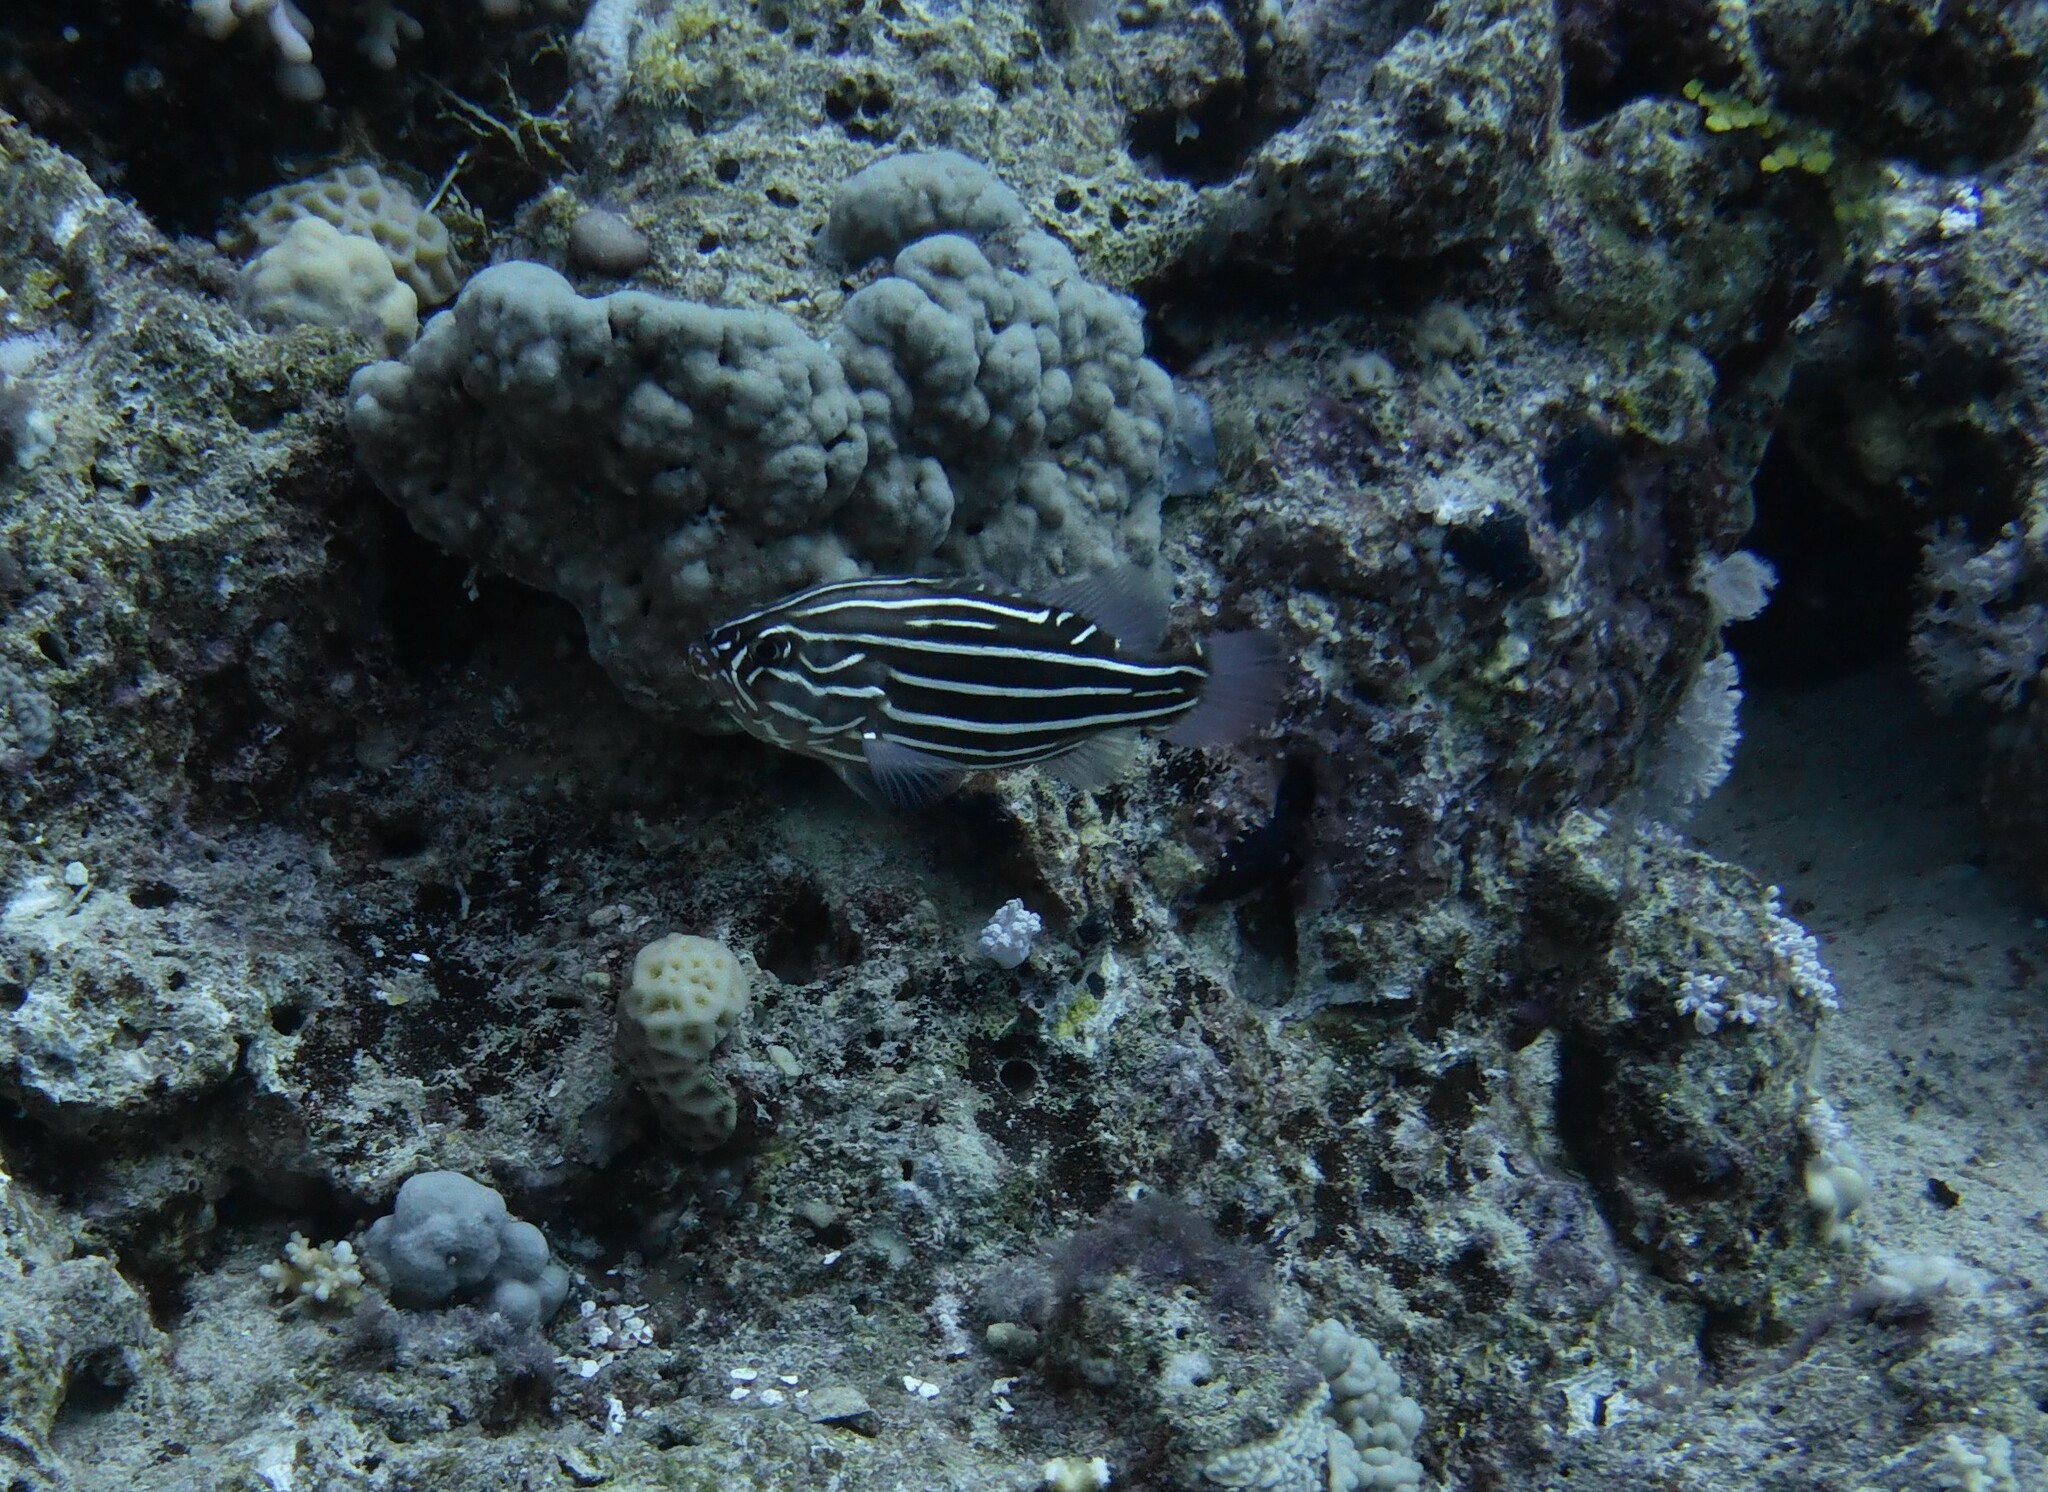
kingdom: Animalia
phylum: Chordata
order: Perciformes
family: Serranidae
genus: Grammistes
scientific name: Grammistes sexlineatus
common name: Sixline soapfish
